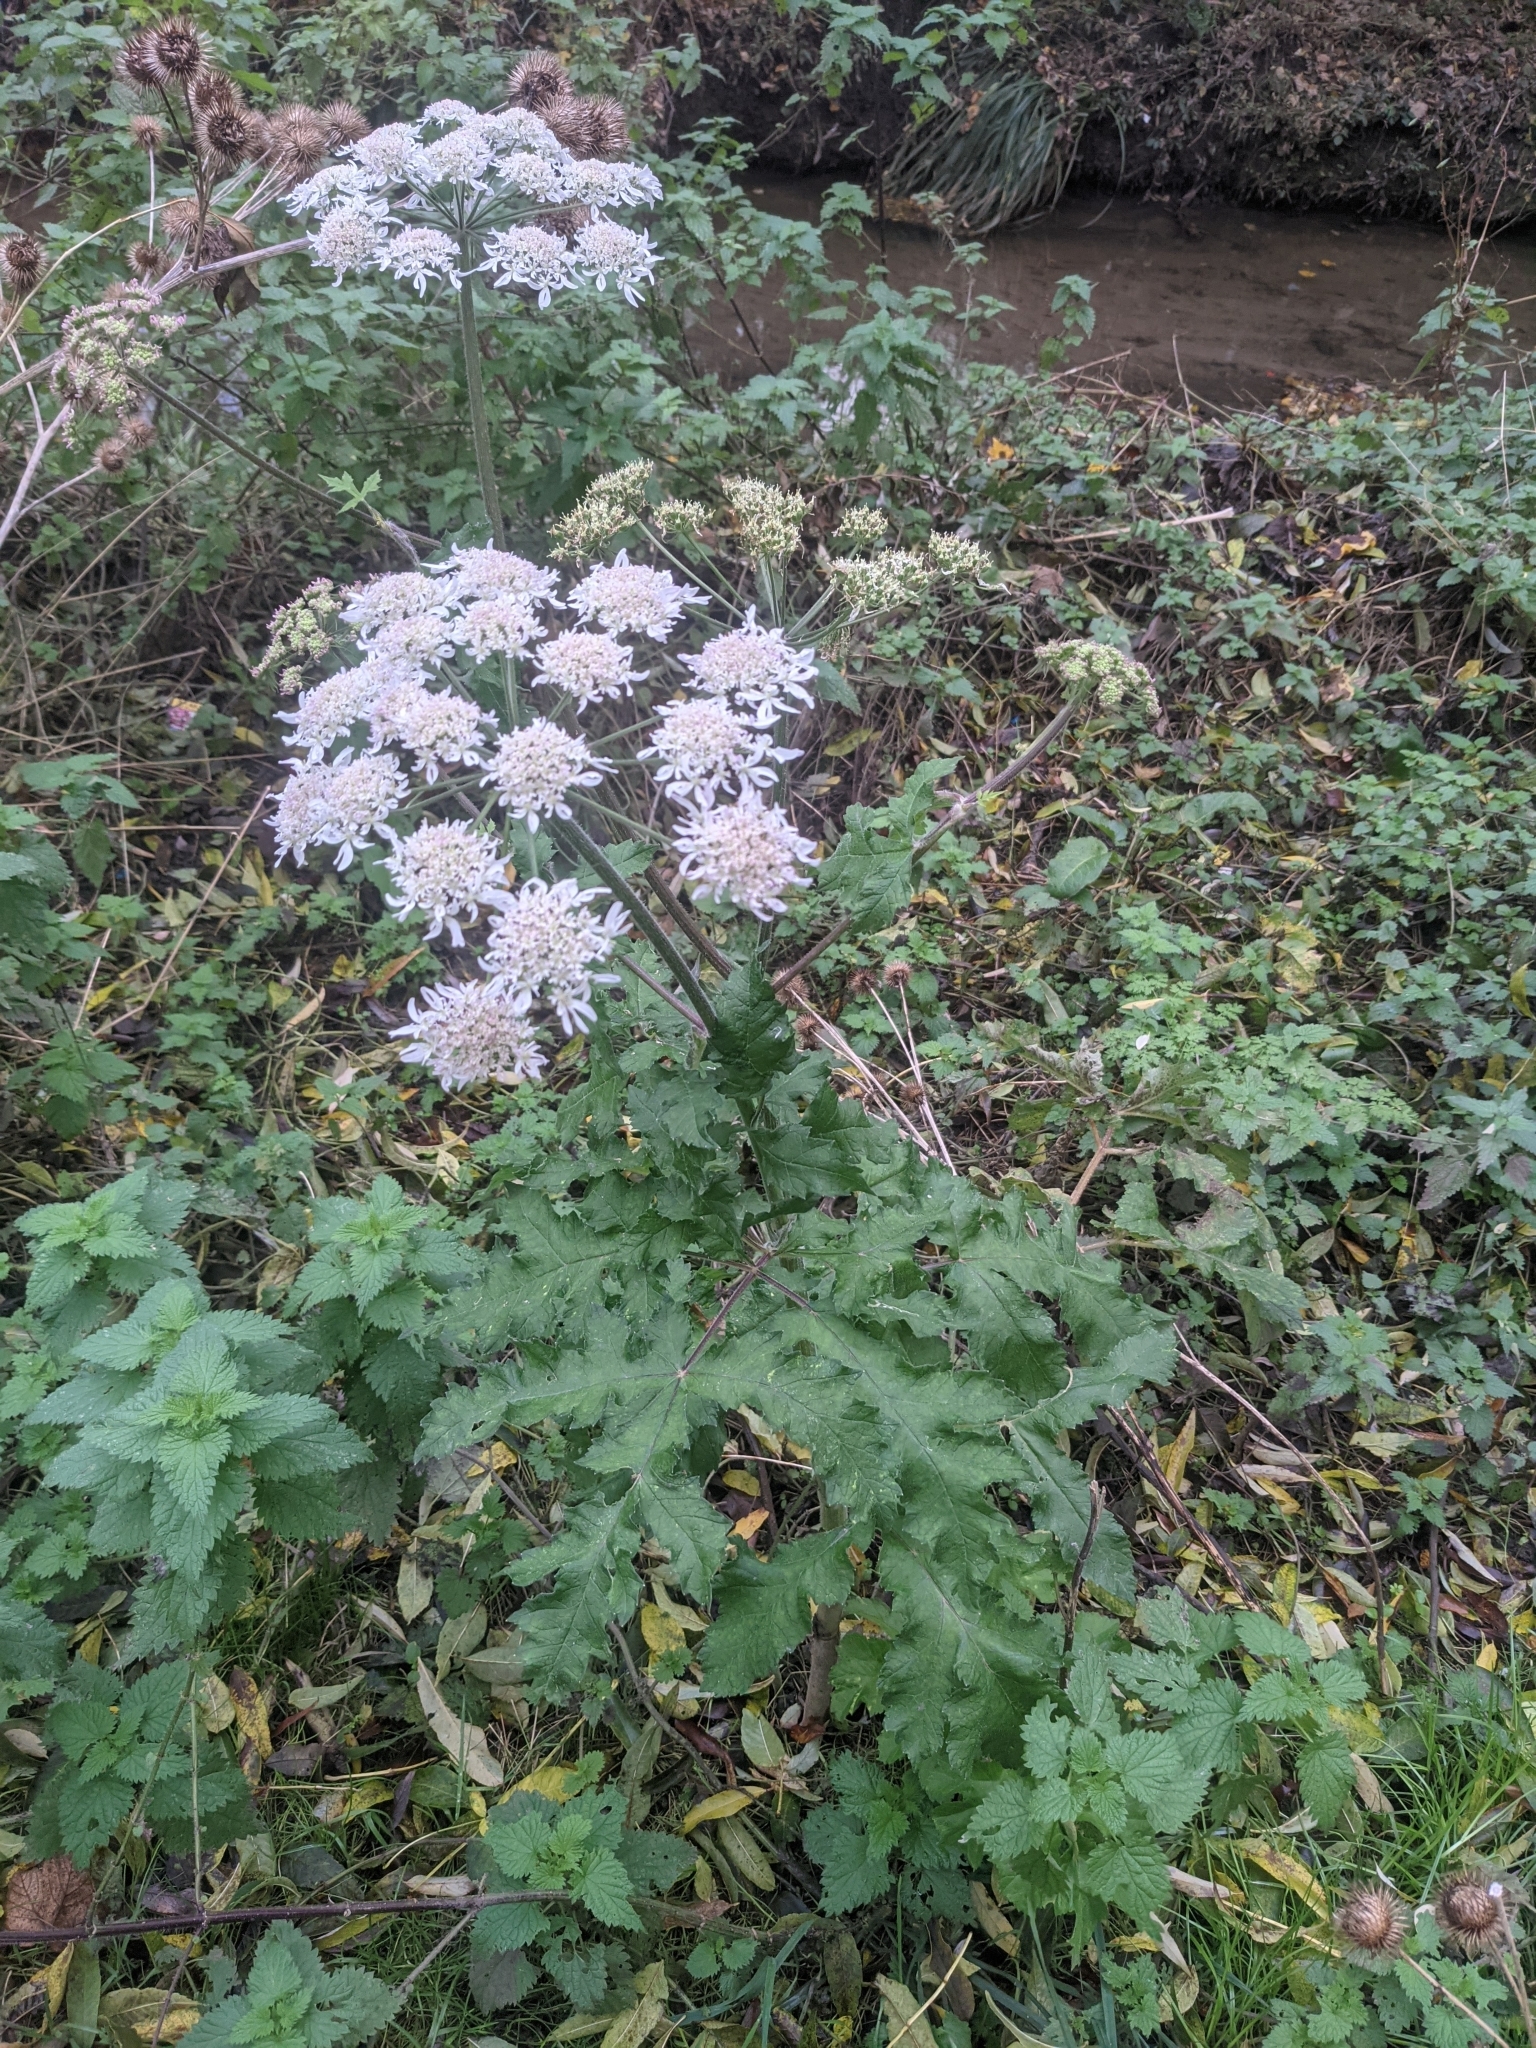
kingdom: Plantae
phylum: Tracheophyta
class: Magnoliopsida
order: Apiales
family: Apiaceae
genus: Heracleum
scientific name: Heracleum sphondylium
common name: Hogweed
